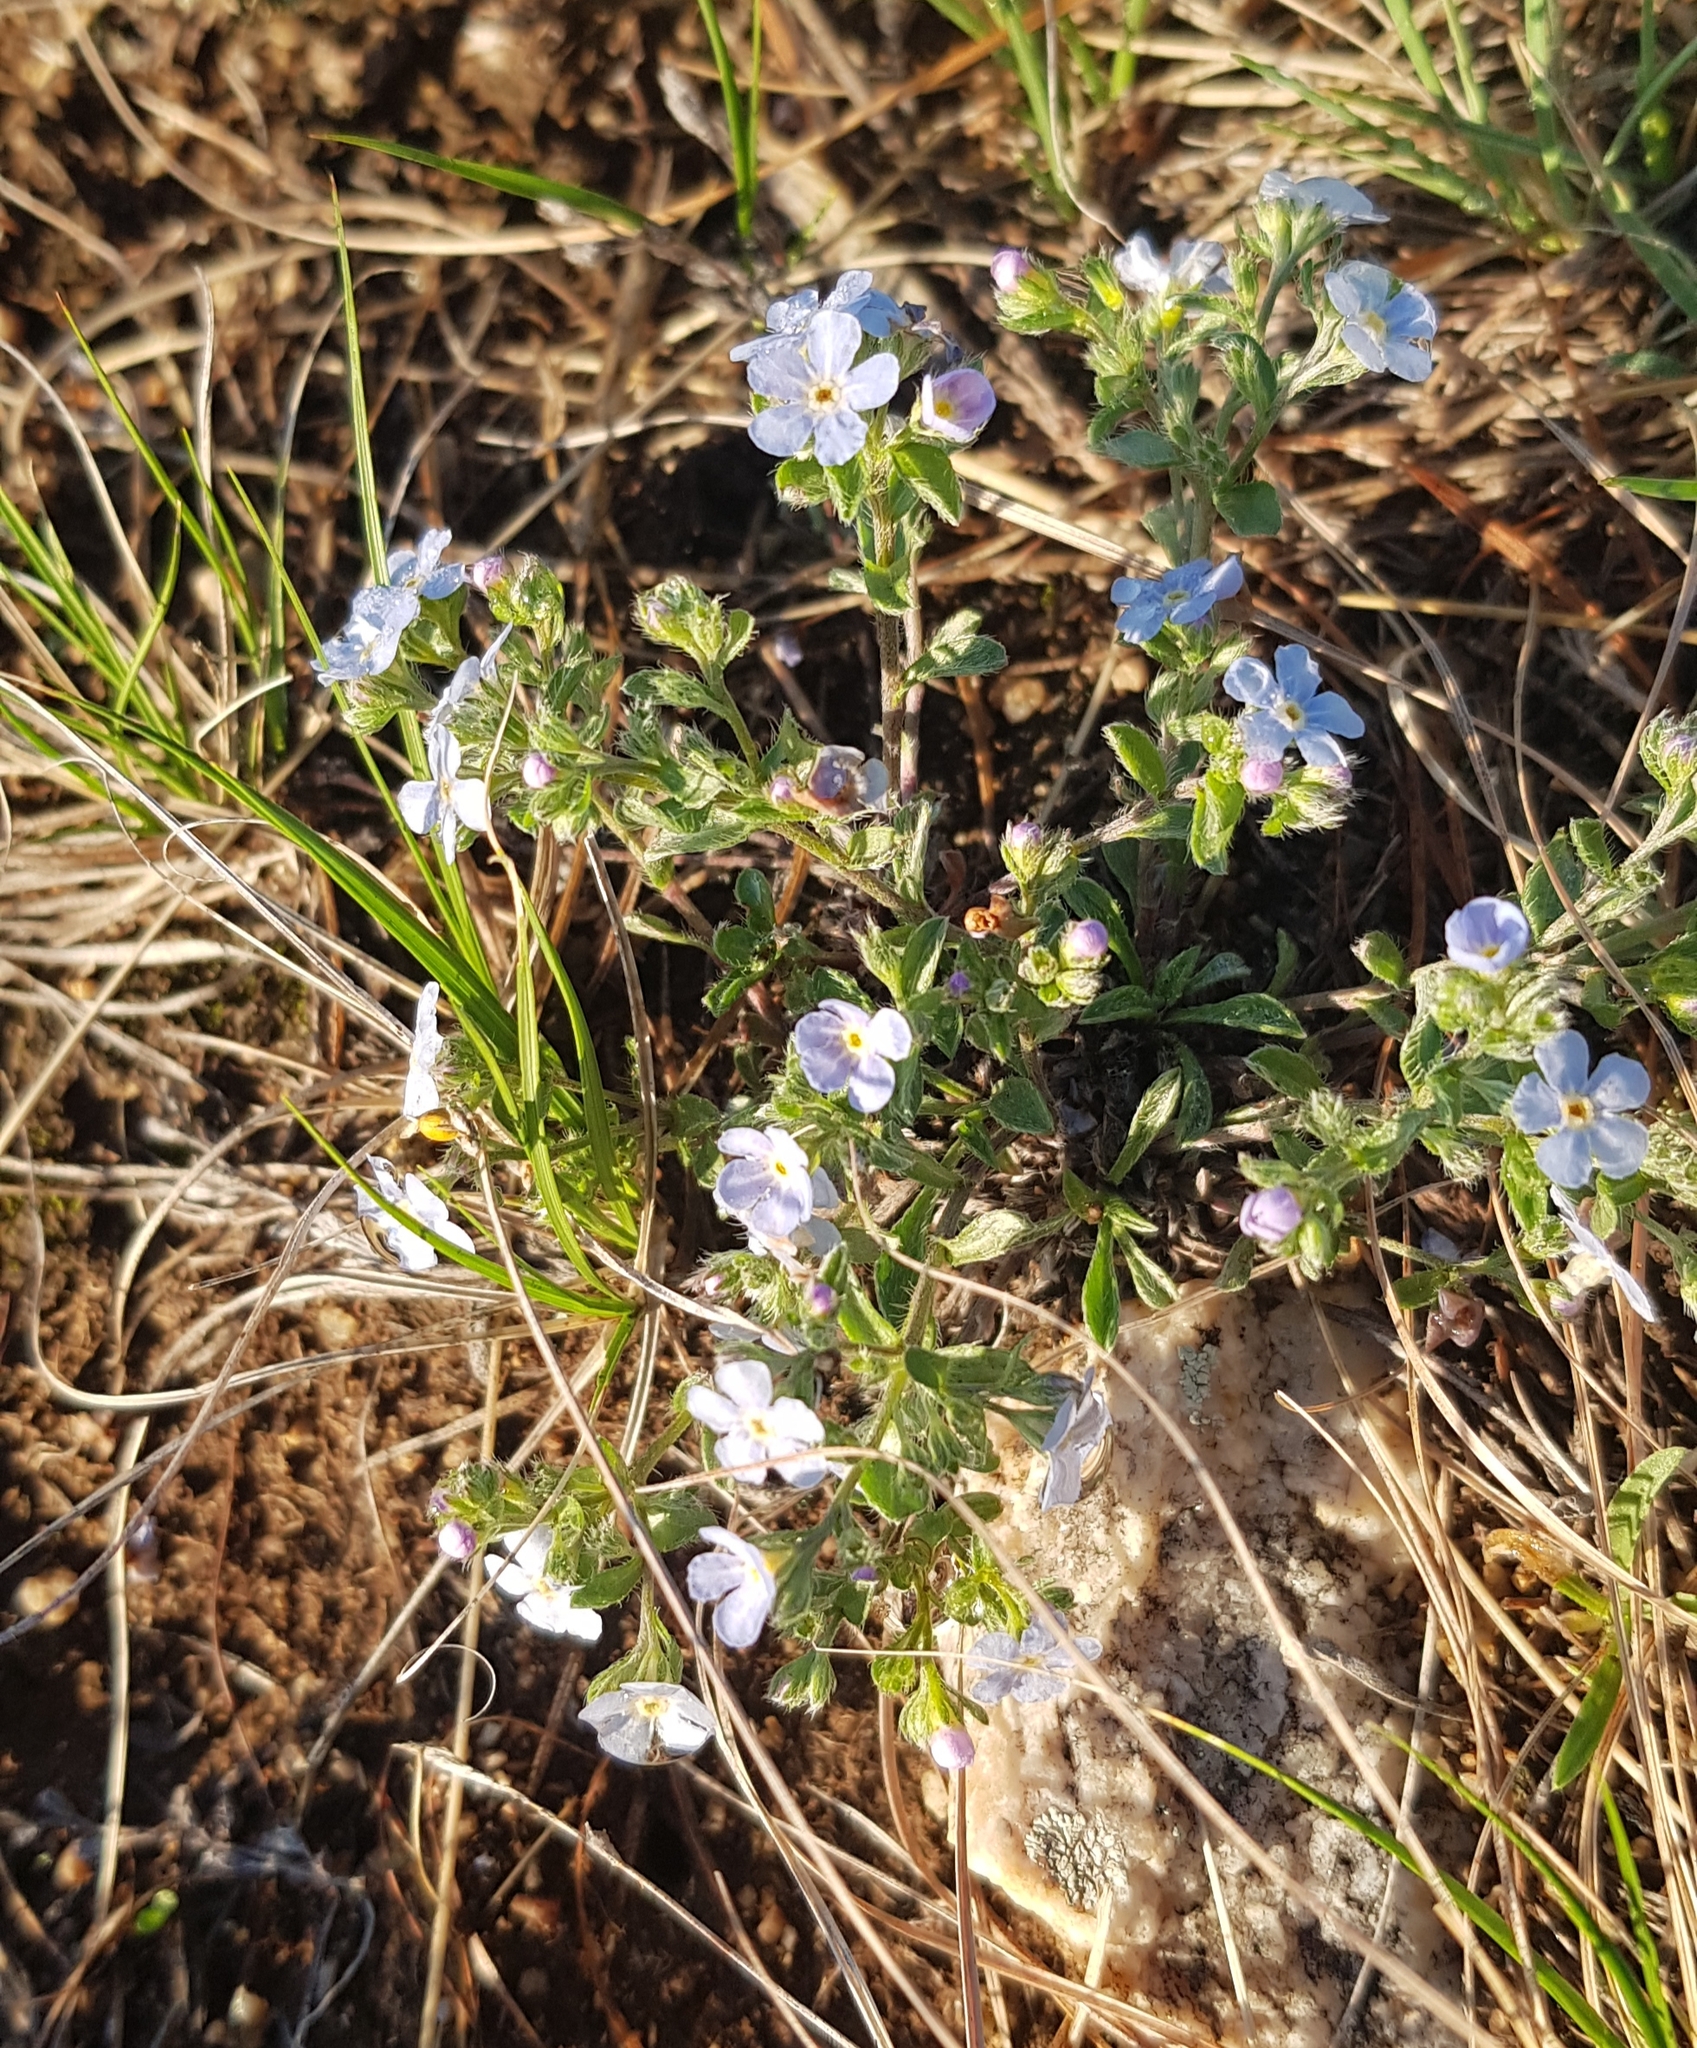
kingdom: Plantae
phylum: Tracheophyta
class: Magnoliopsida
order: Boraginales
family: Boraginaceae
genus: Eritrichium
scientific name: Eritrichium rupestre
